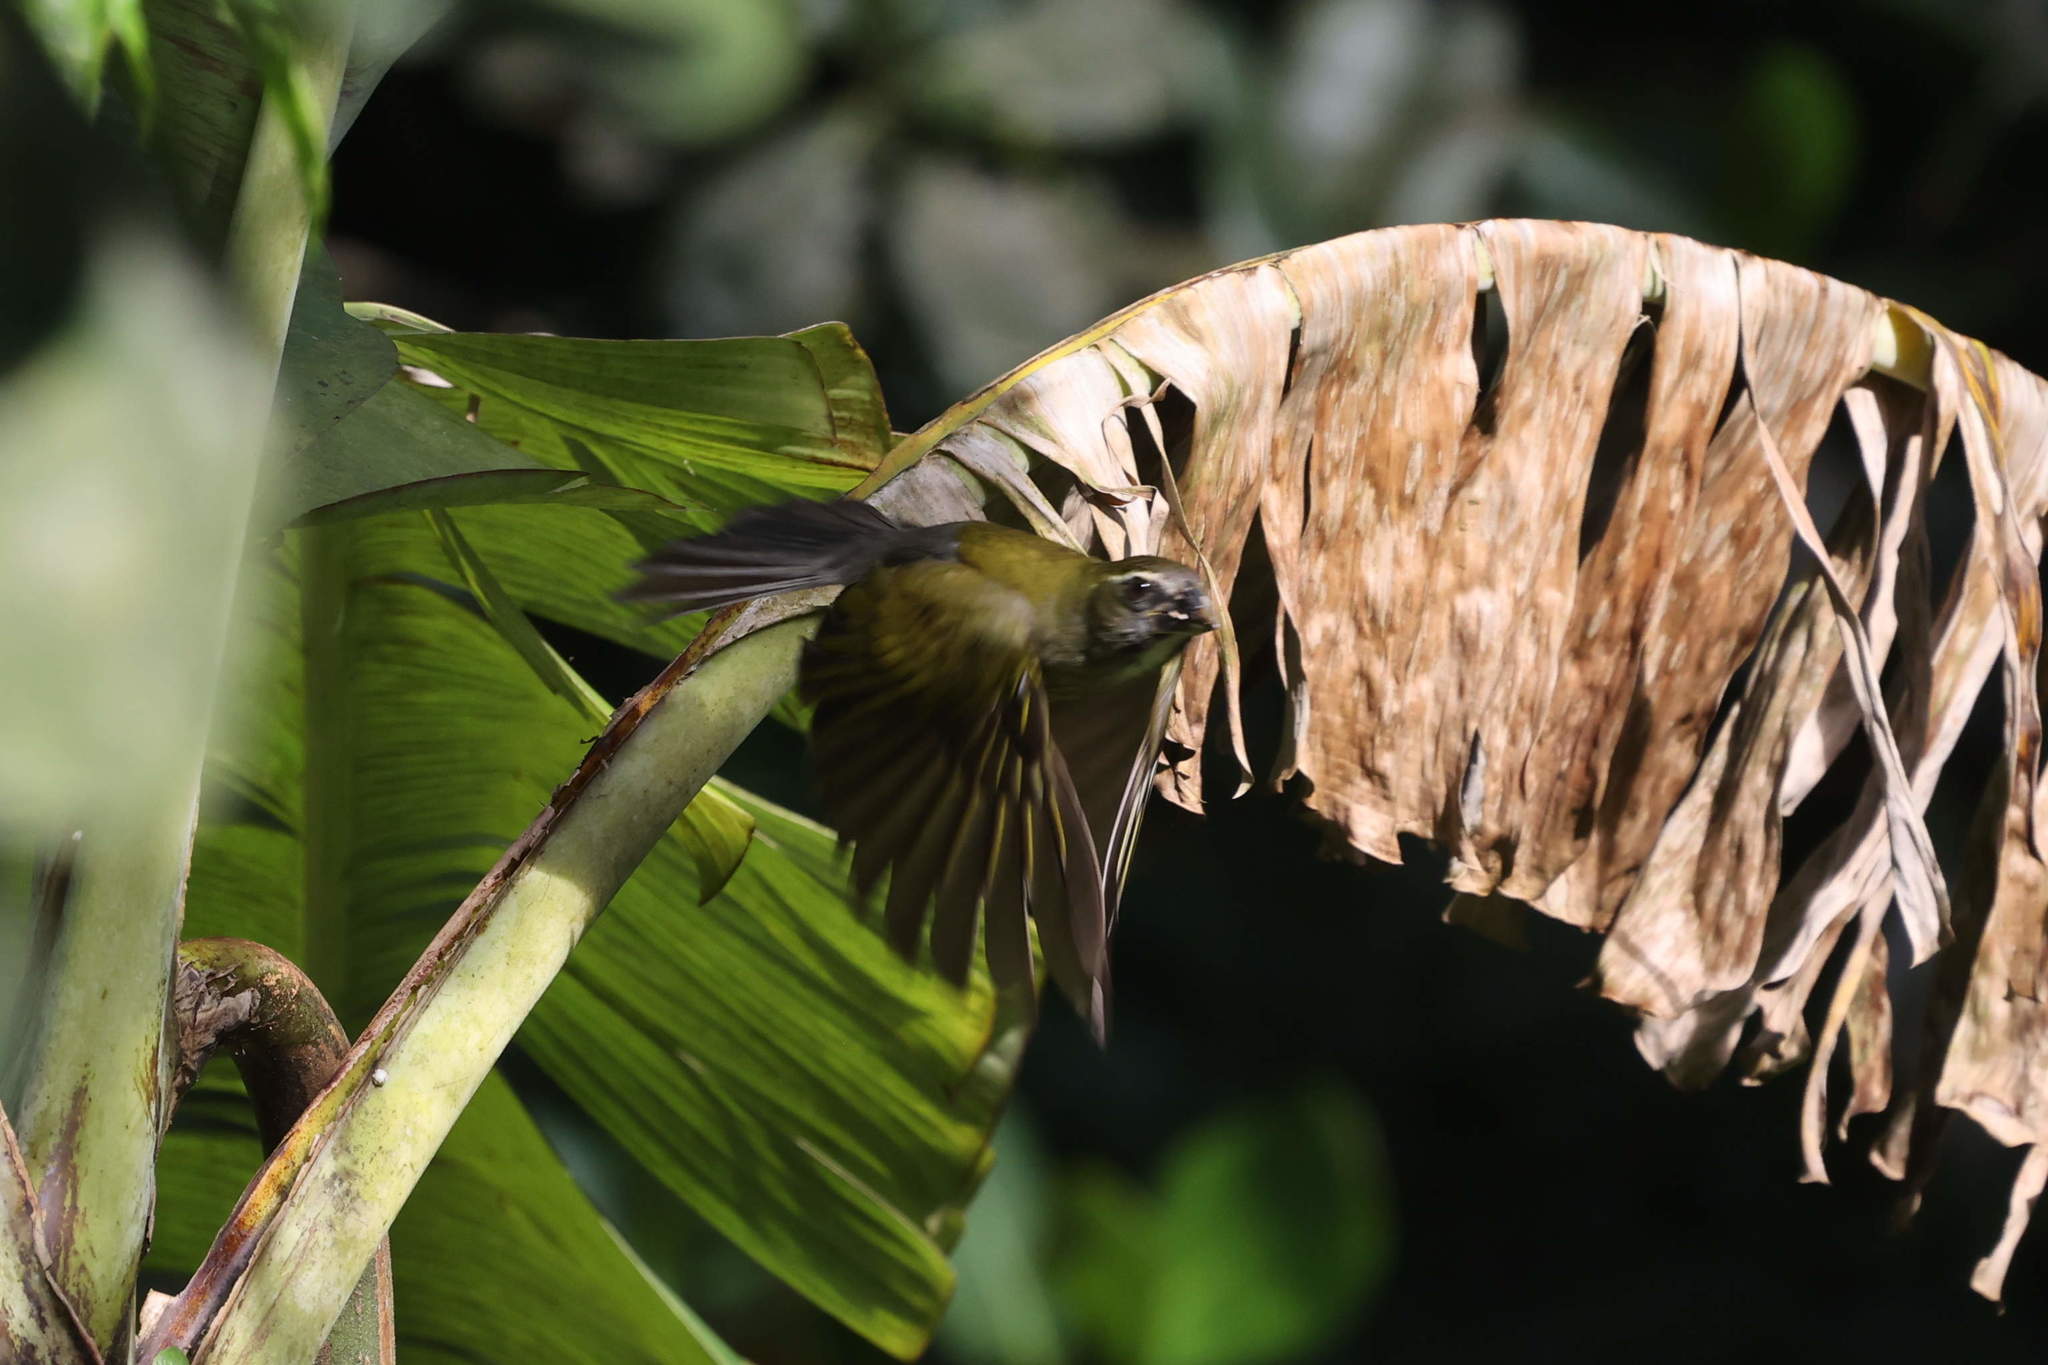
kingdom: Animalia
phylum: Chordata
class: Aves
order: Passeriformes
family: Thraupidae
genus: Saltator
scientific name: Saltator albicollis
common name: Lesser antillean saltator
